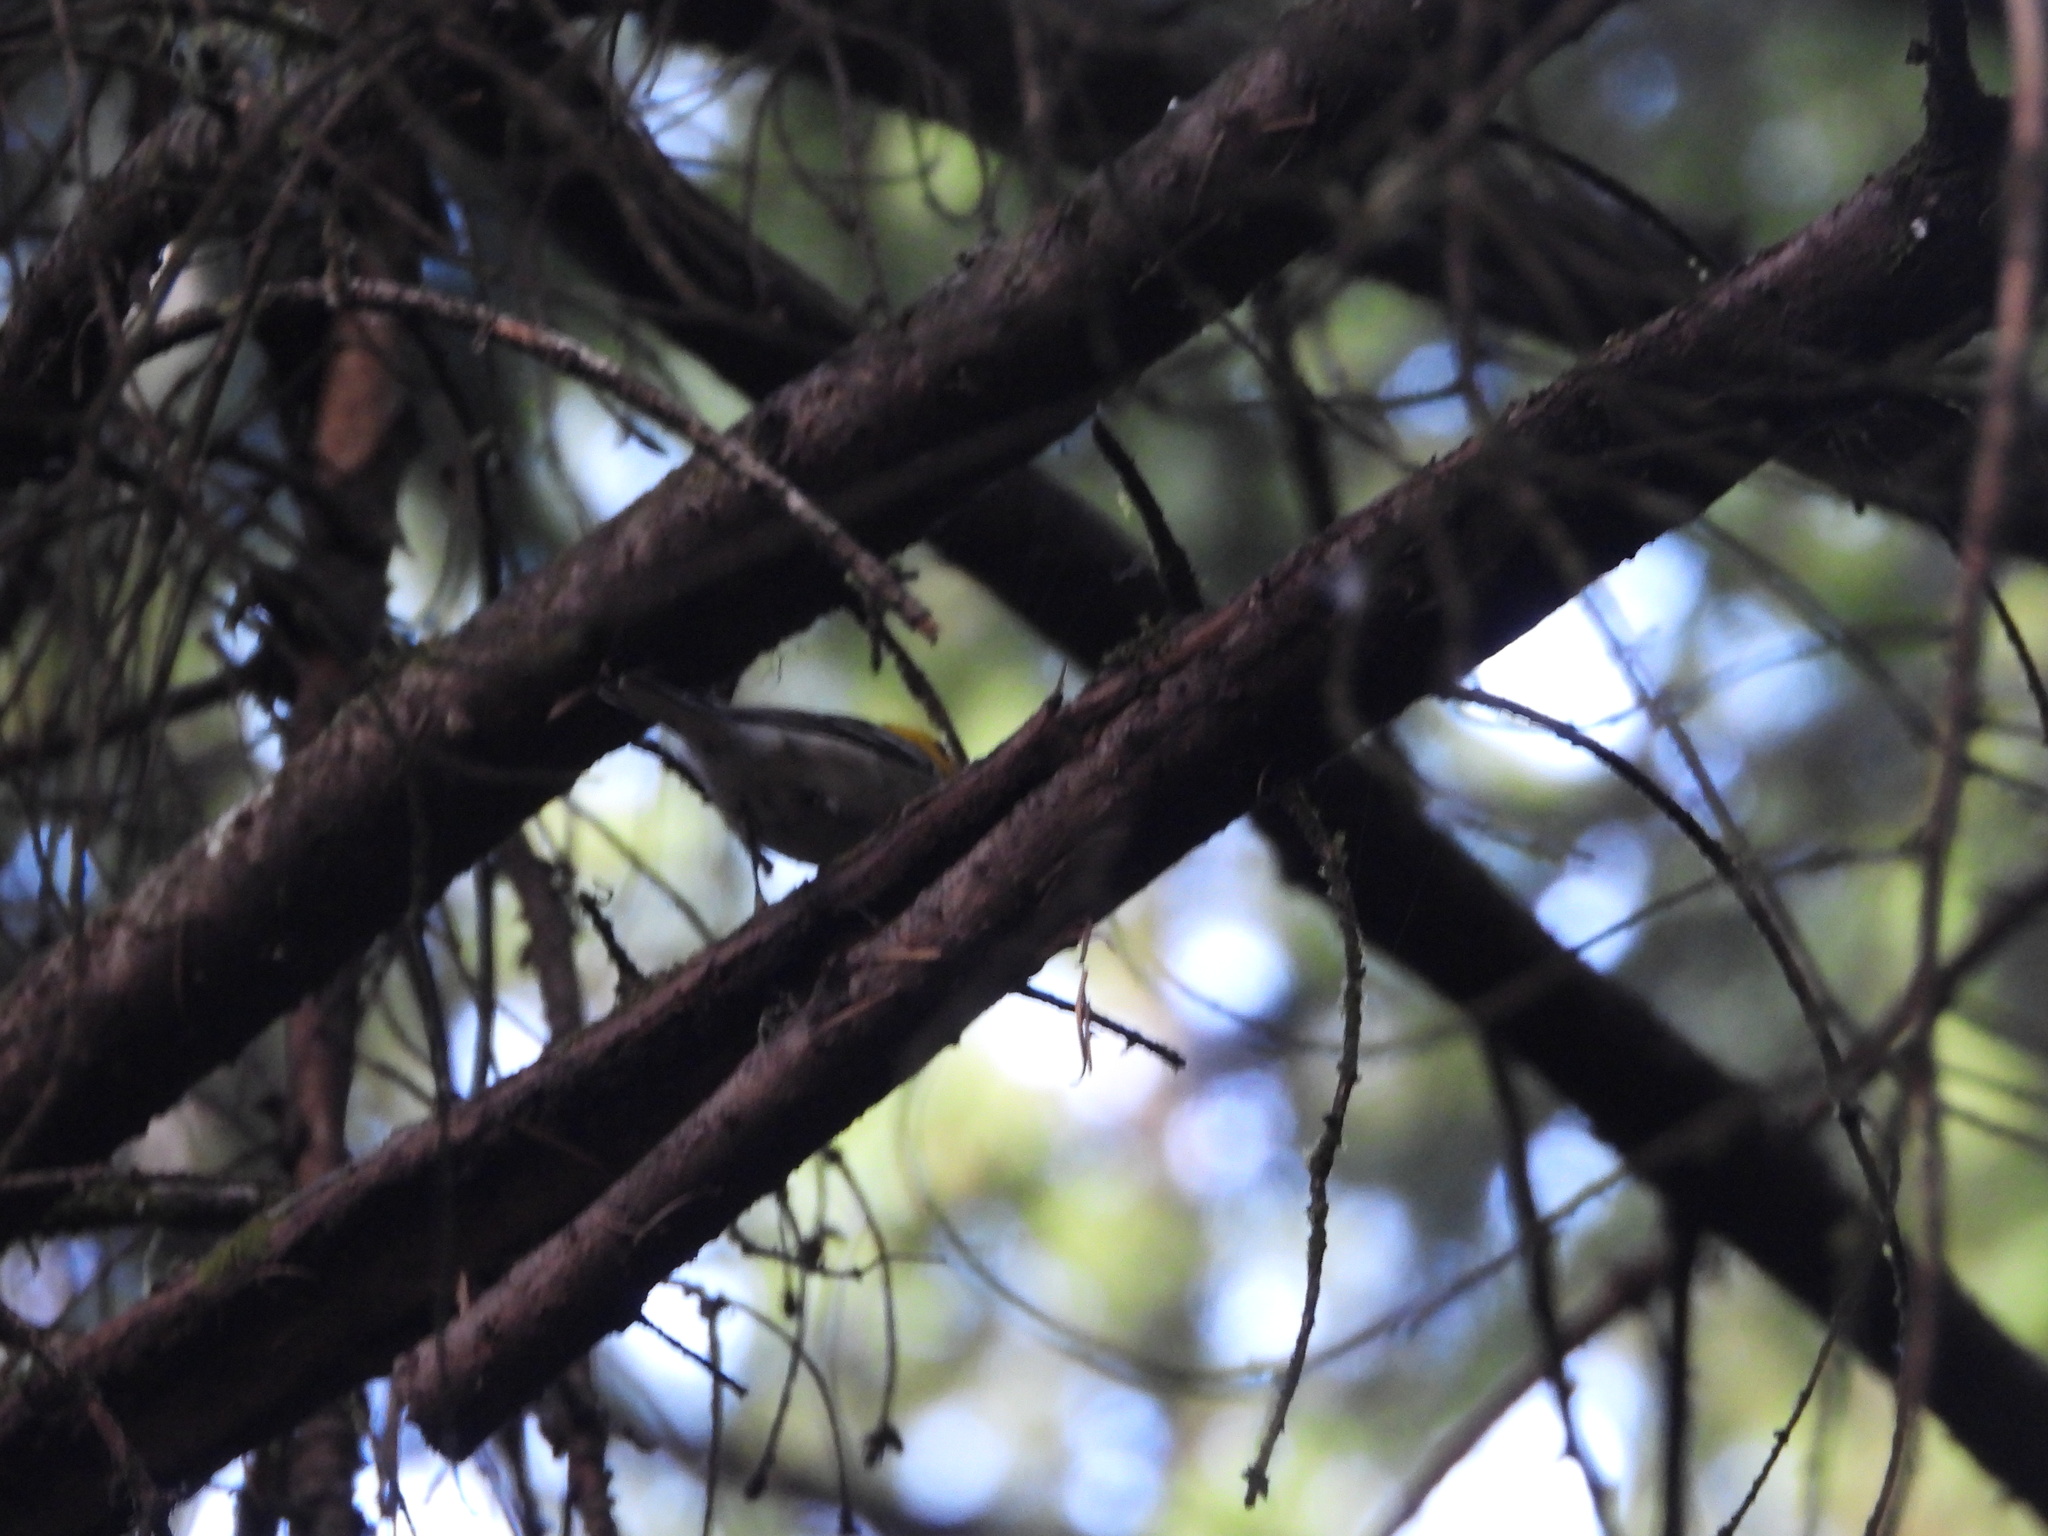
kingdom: Animalia
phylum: Chordata
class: Aves
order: Passeriformes
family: Parulidae
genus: Setophaga
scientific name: Setophaga occidentalis
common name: Hermit warbler
